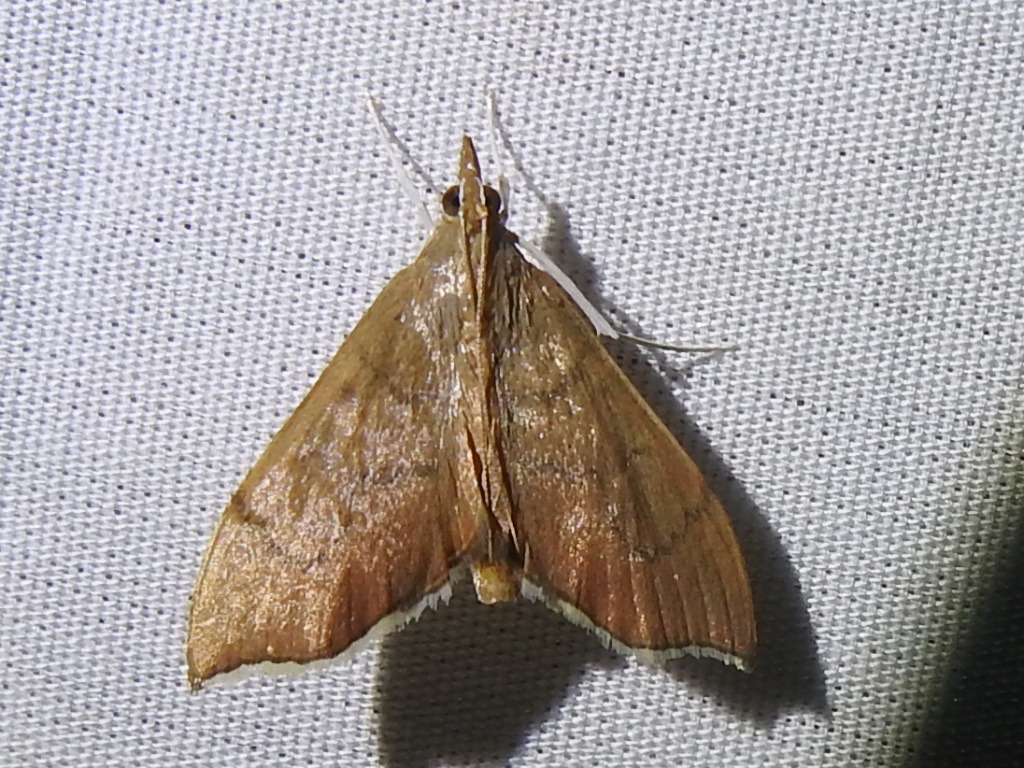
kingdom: Animalia
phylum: Arthropoda
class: Insecta
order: Lepidoptera
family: Crambidae
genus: Sericoplaga
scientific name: Sericoplaga externalis
